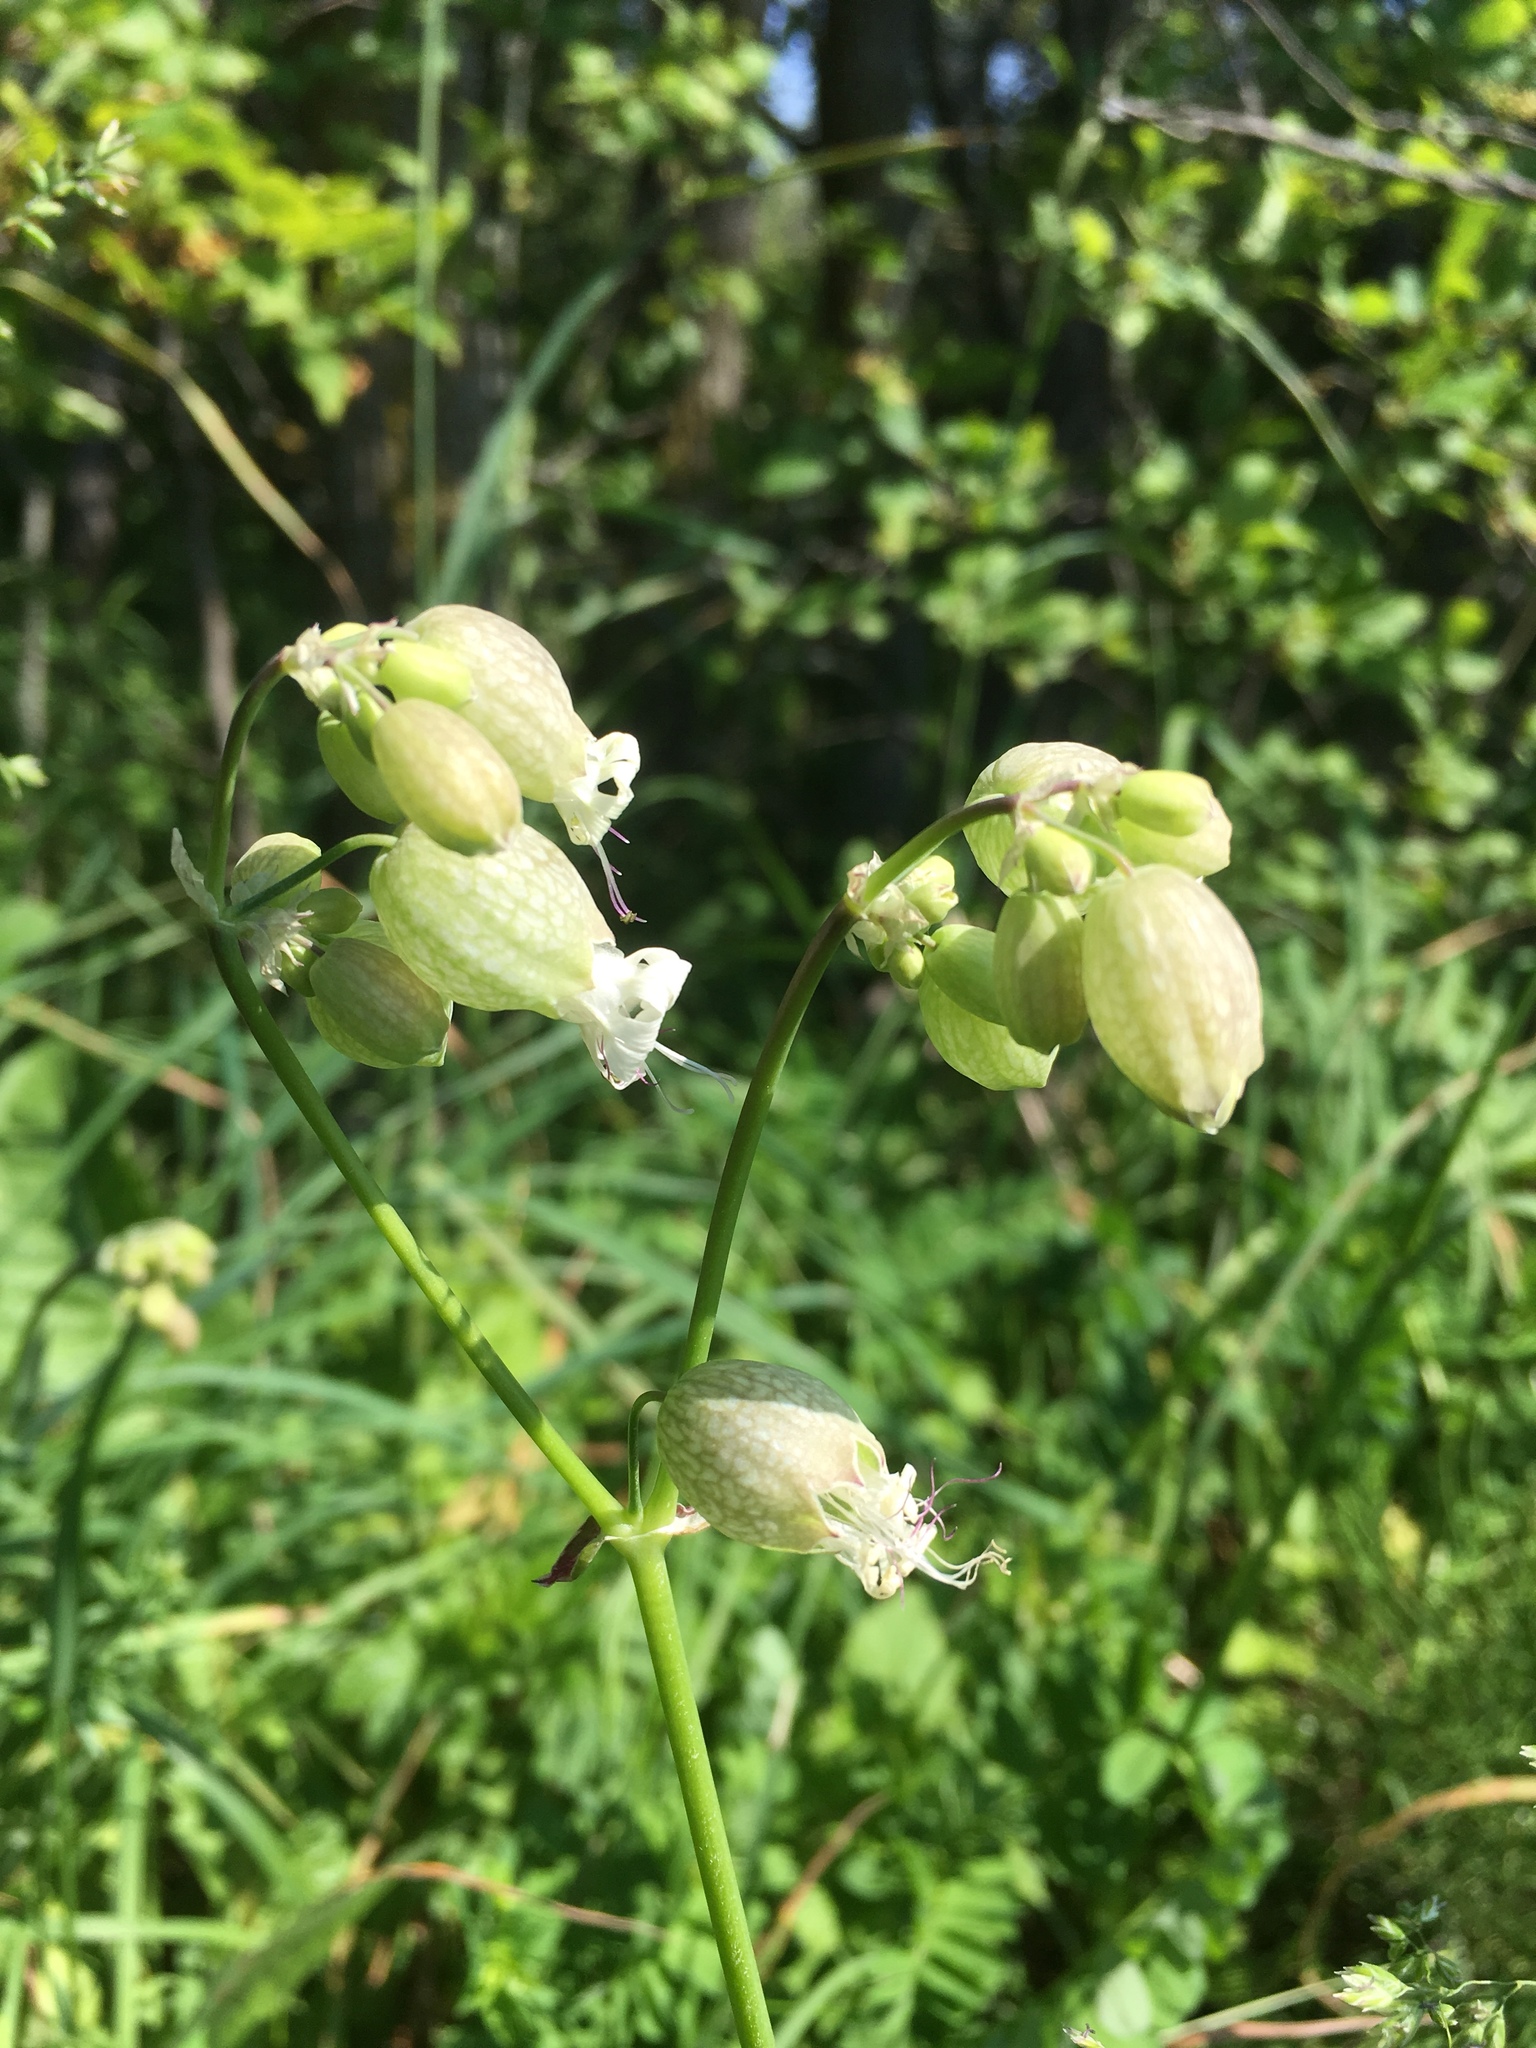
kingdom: Plantae
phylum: Tracheophyta
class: Magnoliopsida
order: Caryophyllales
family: Caryophyllaceae
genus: Silene
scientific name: Silene vulgaris
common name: Bladder campion
